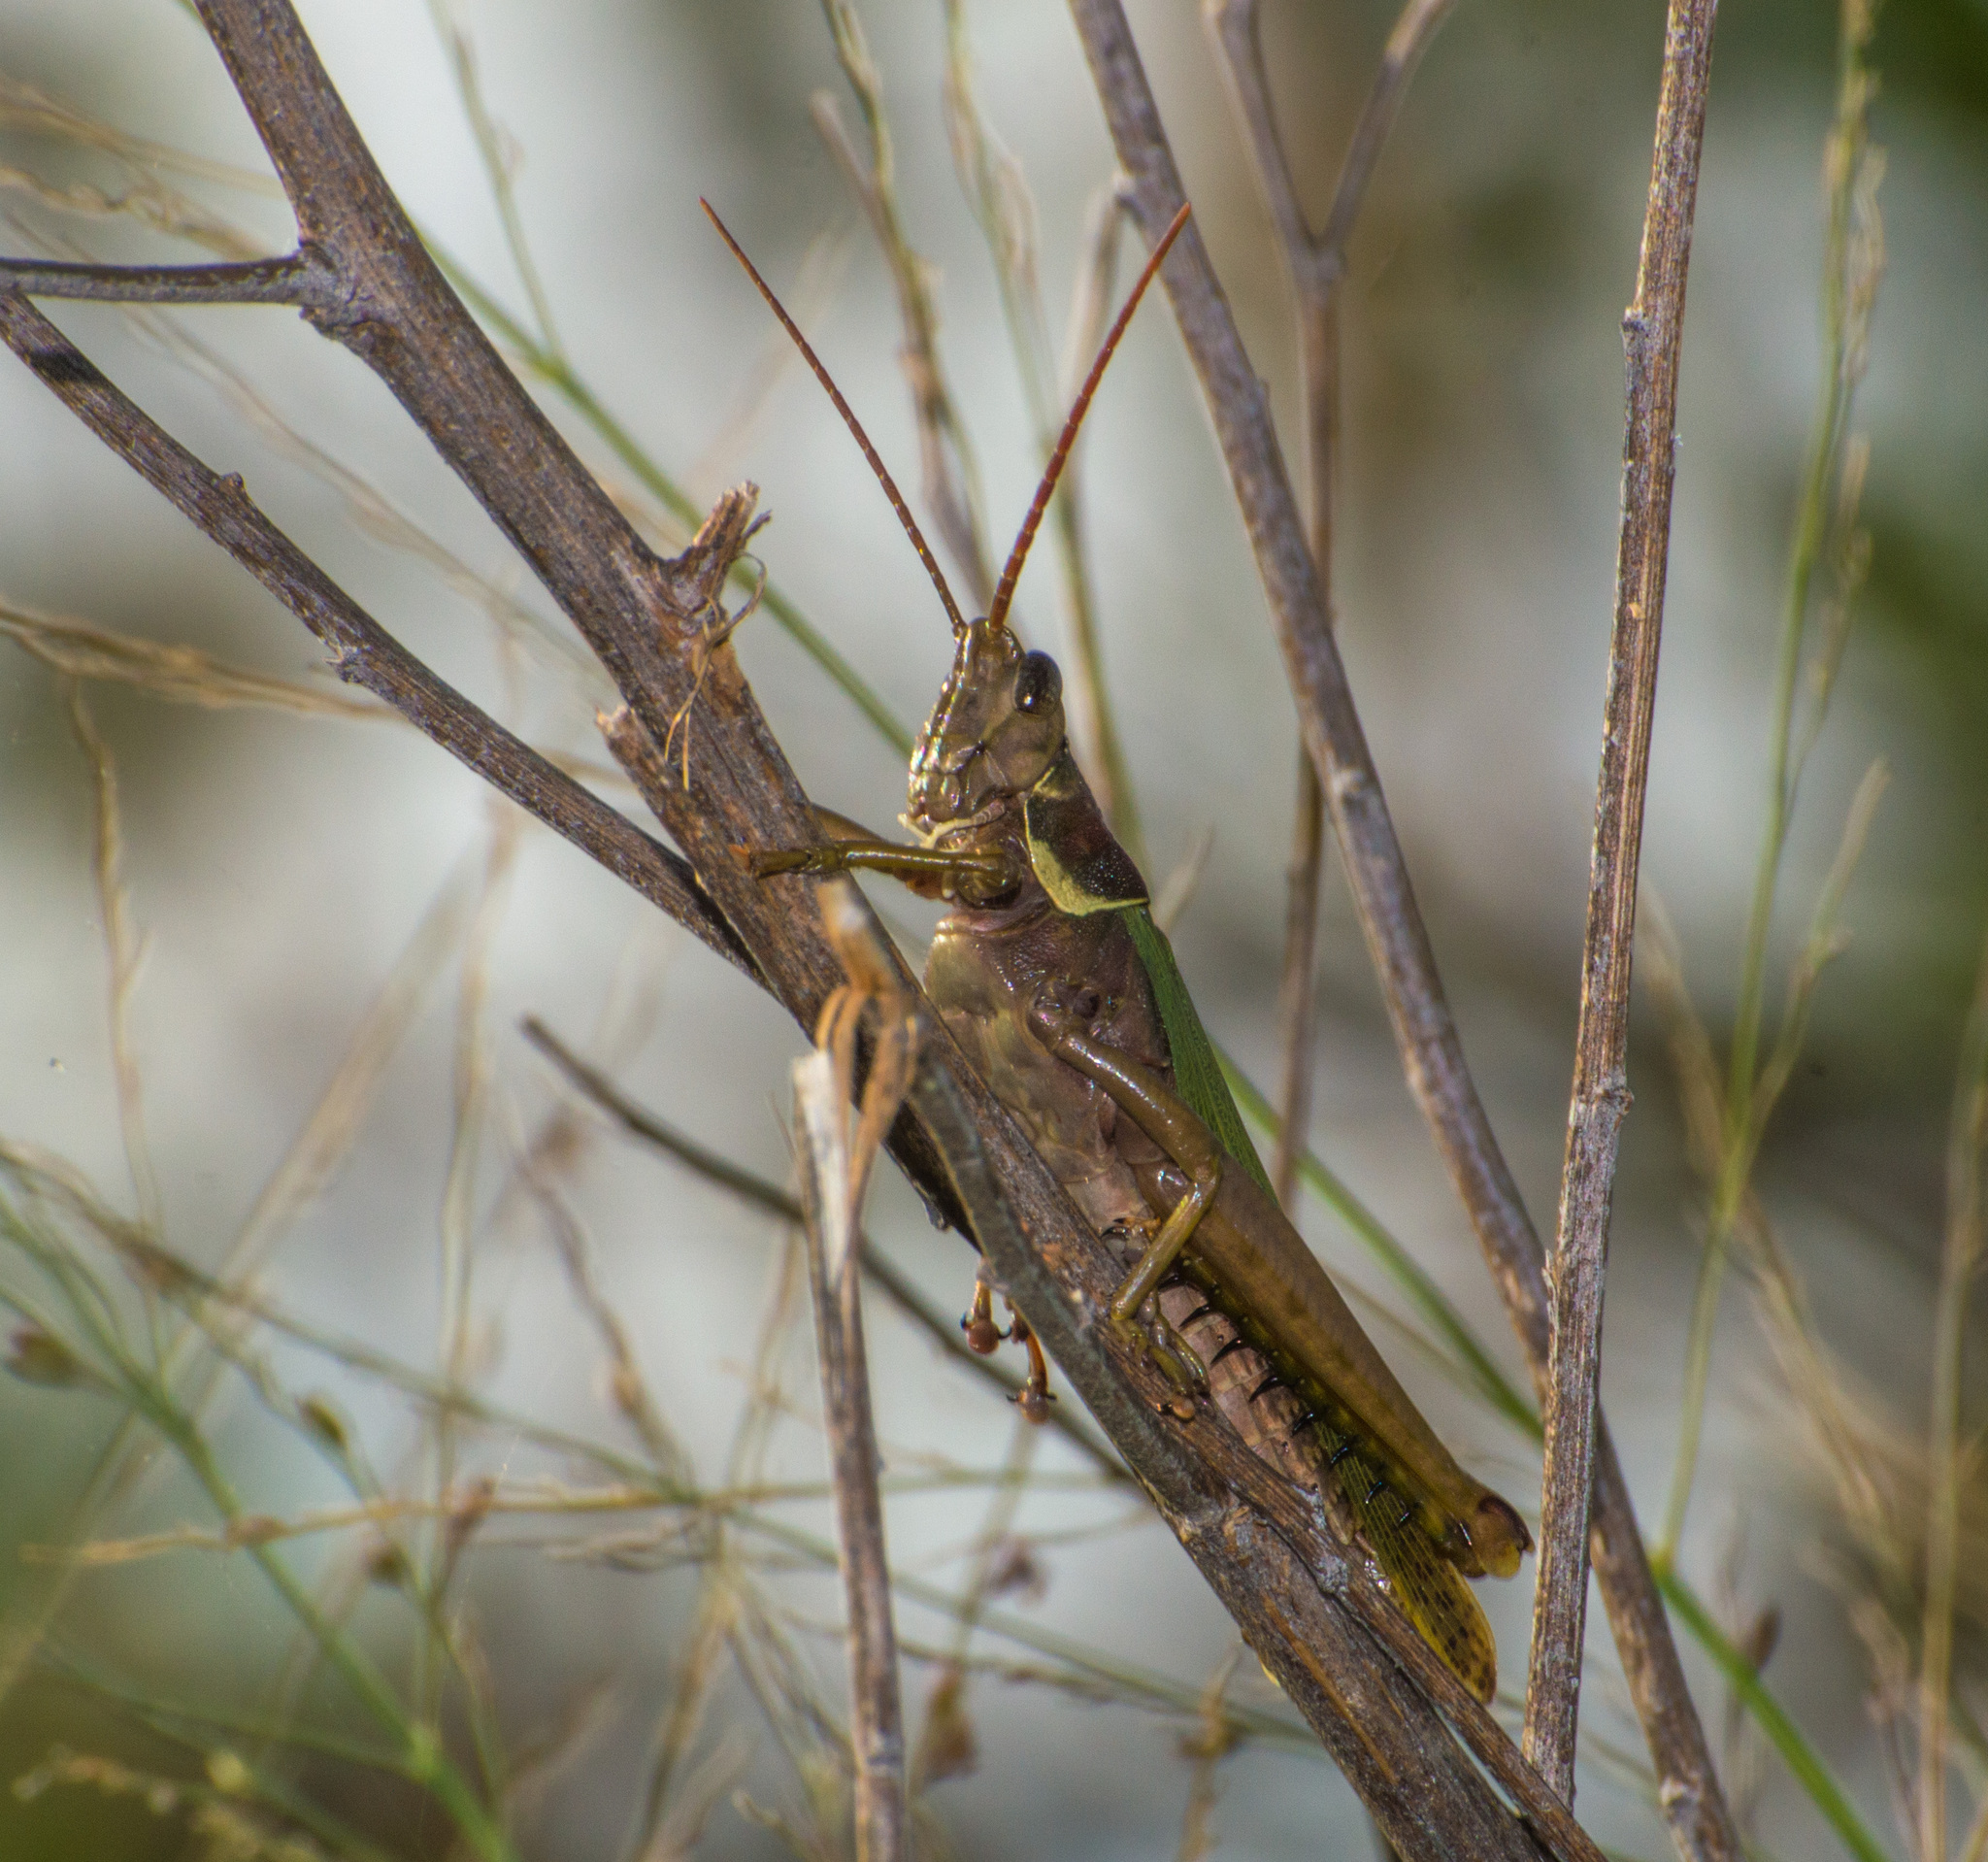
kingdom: Animalia
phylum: Arthropoda
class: Insecta
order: Orthoptera
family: Romaleidae
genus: Coryacris
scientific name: Coryacris angustipennis
